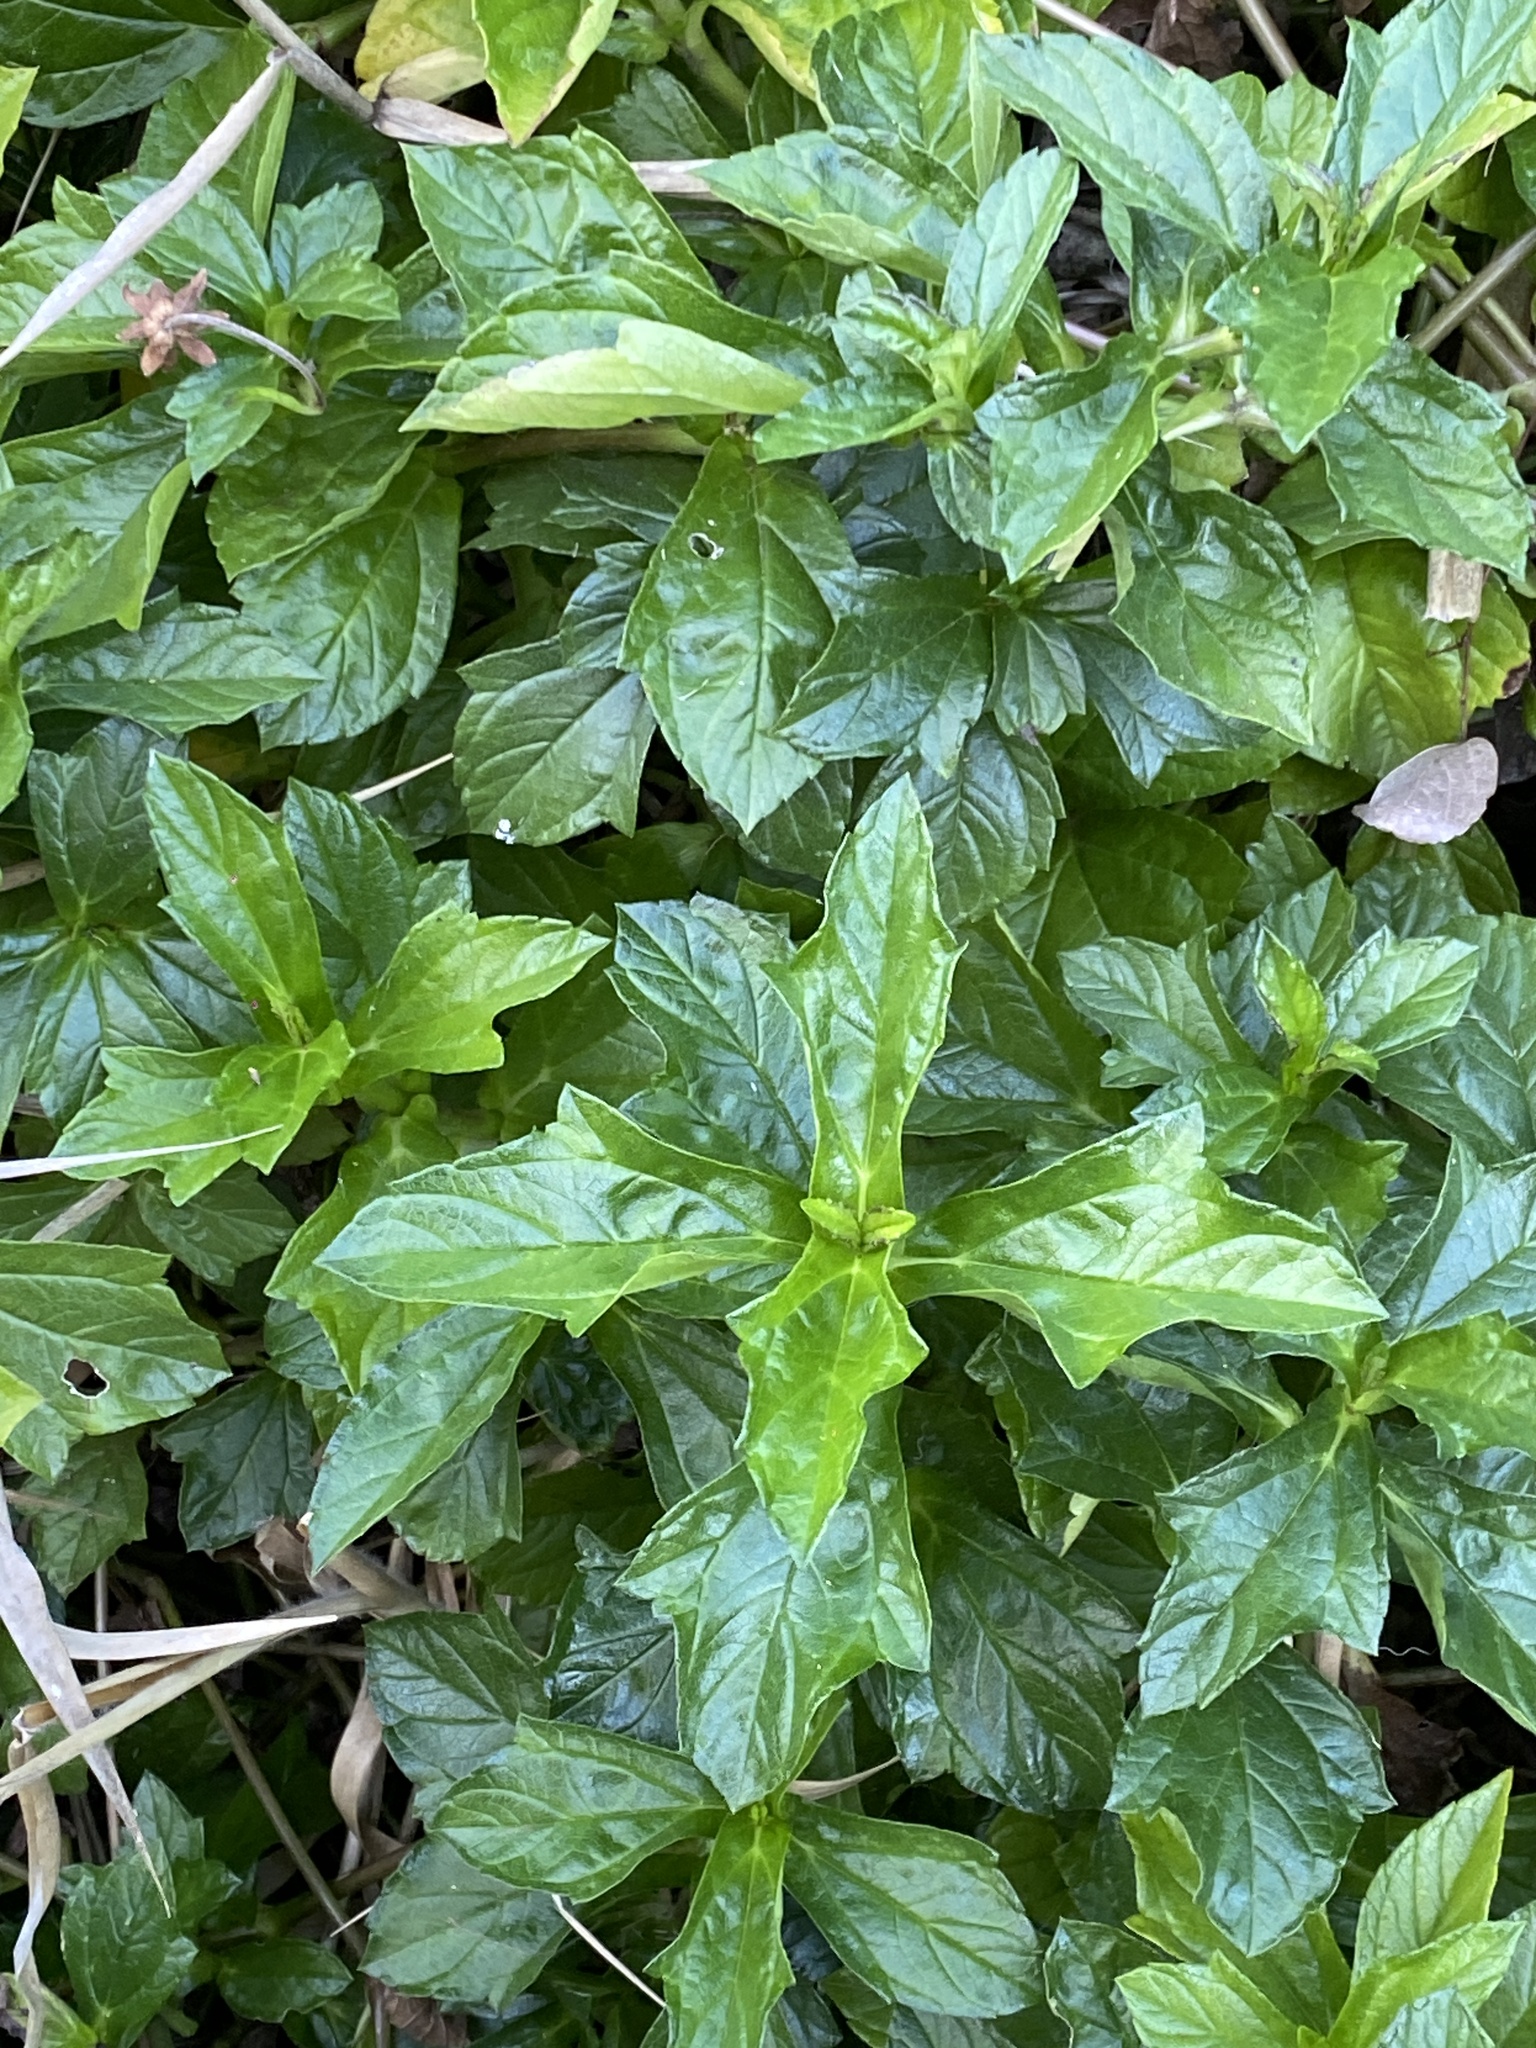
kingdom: Plantae
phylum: Tracheophyta
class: Magnoliopsida
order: Asterales
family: Asteraceae
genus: Sphagneticola
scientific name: Sphagneticola trilobata
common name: Bay biscayne creeping-oxeye
